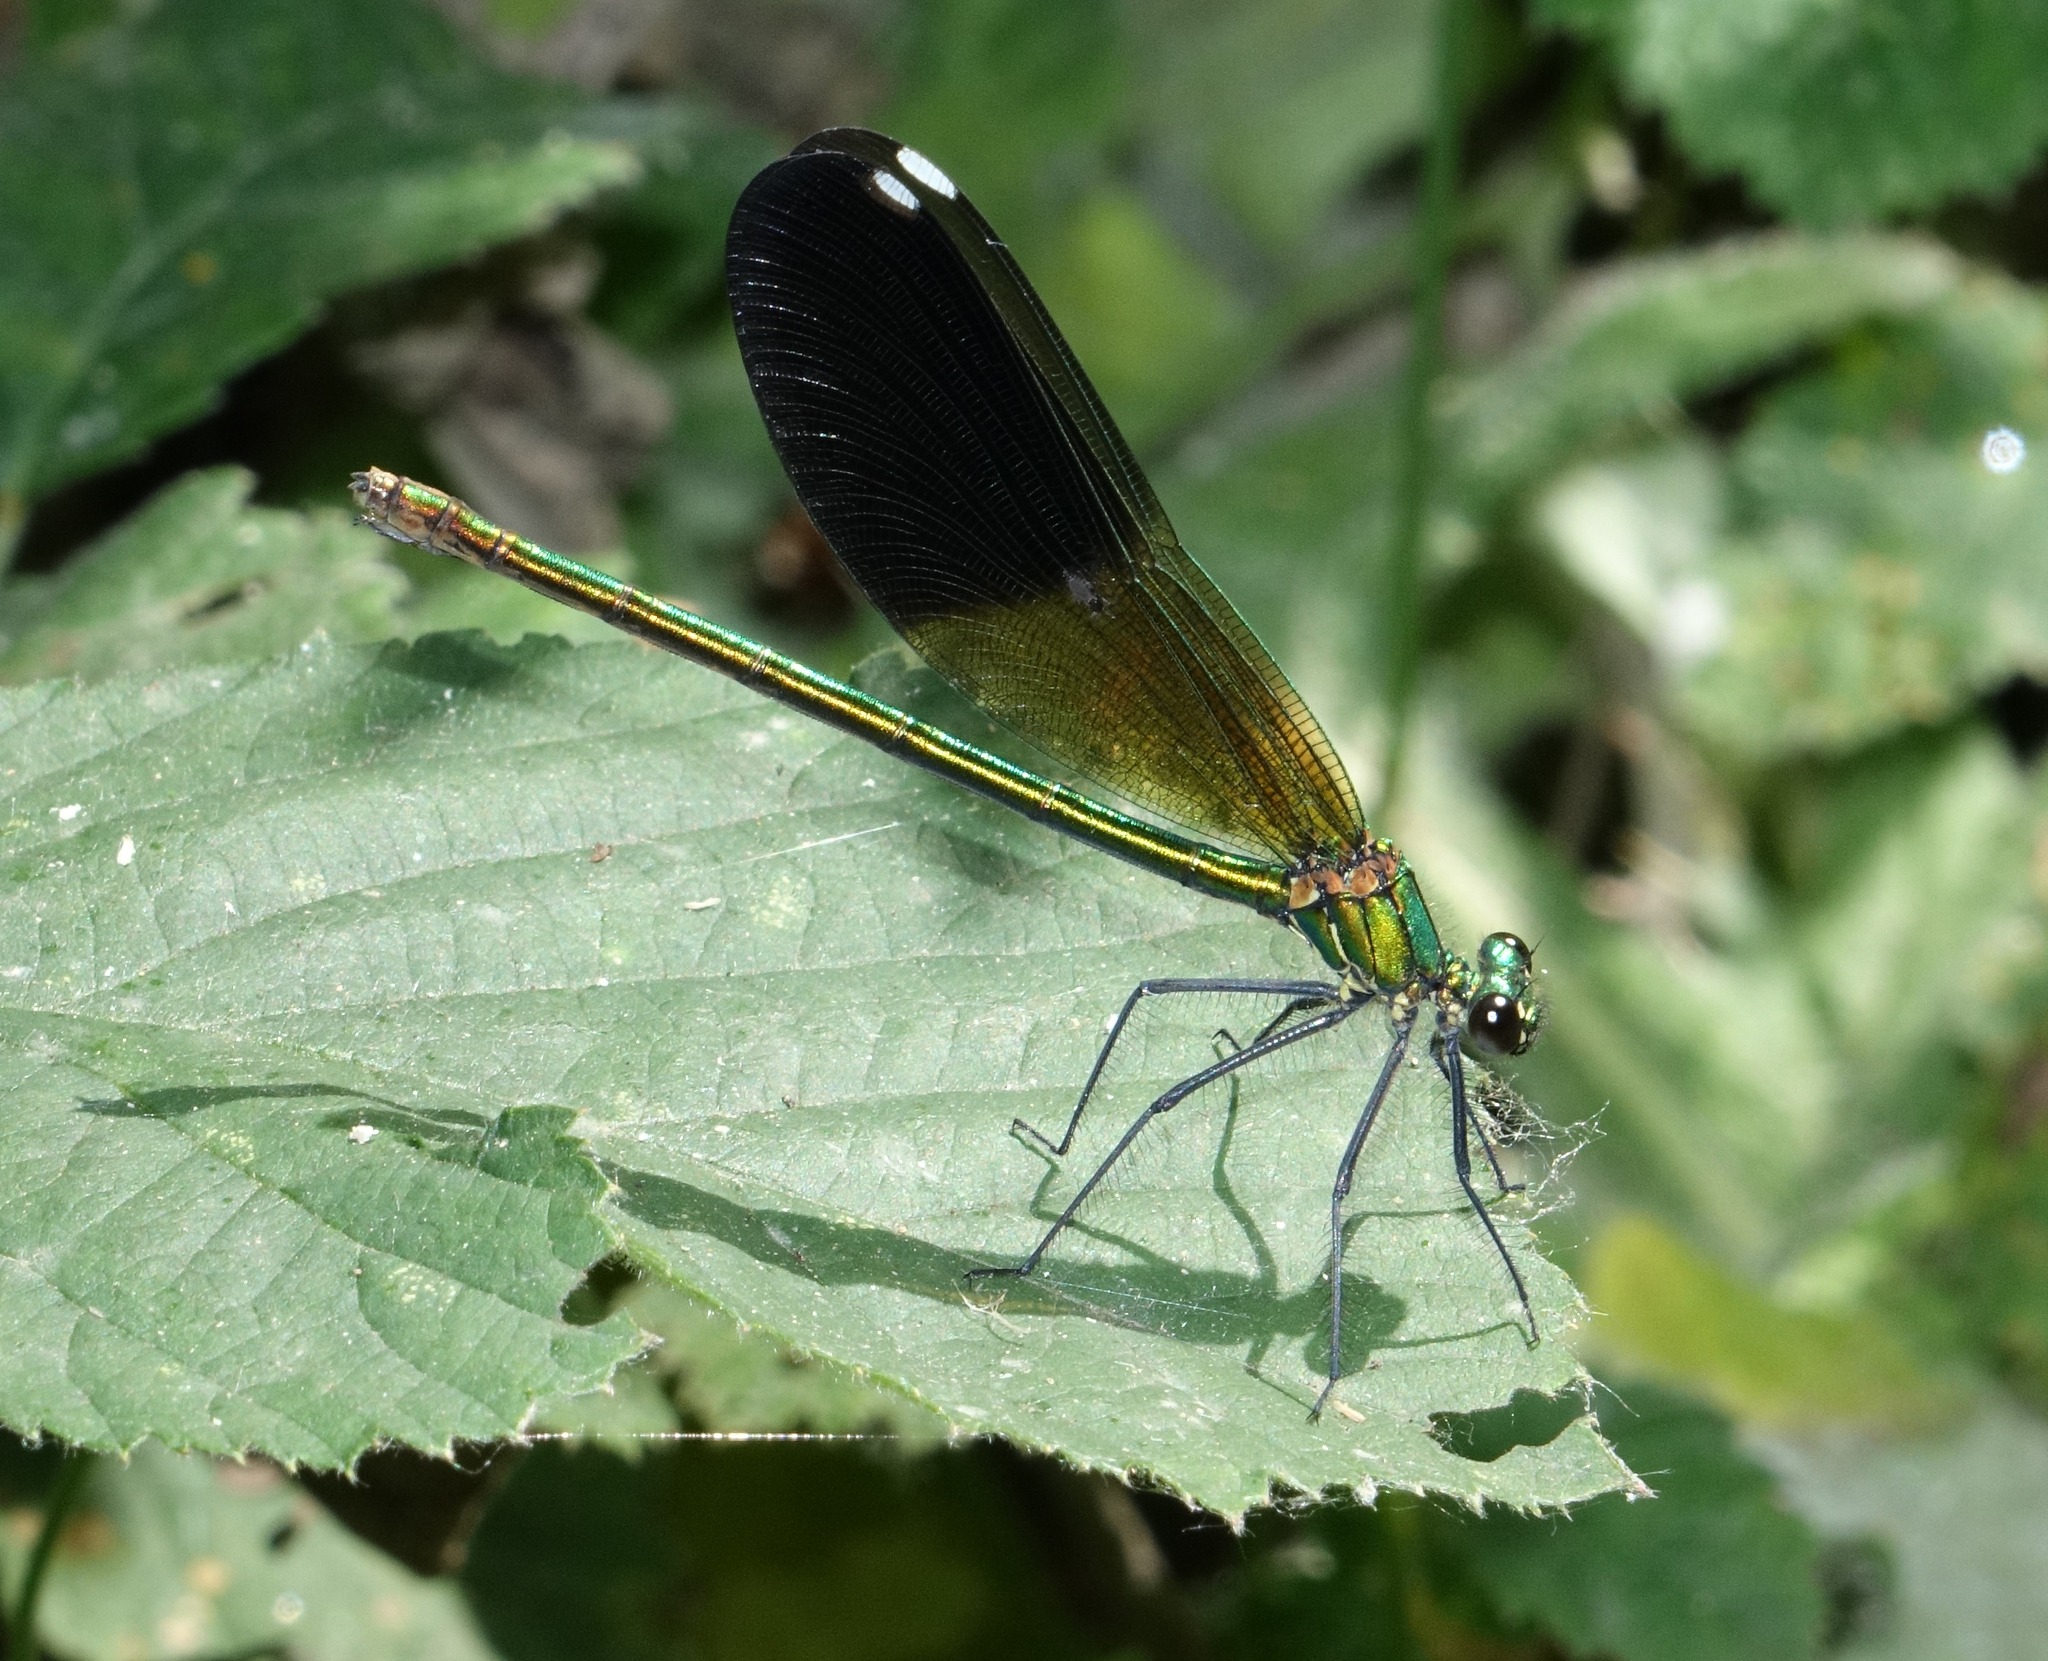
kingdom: Animalia
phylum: Arthropoda
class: Insecta
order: Odonata
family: Calopterygidae
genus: Calopteryx
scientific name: Calopteryx splendens
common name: Banded demoiselle
